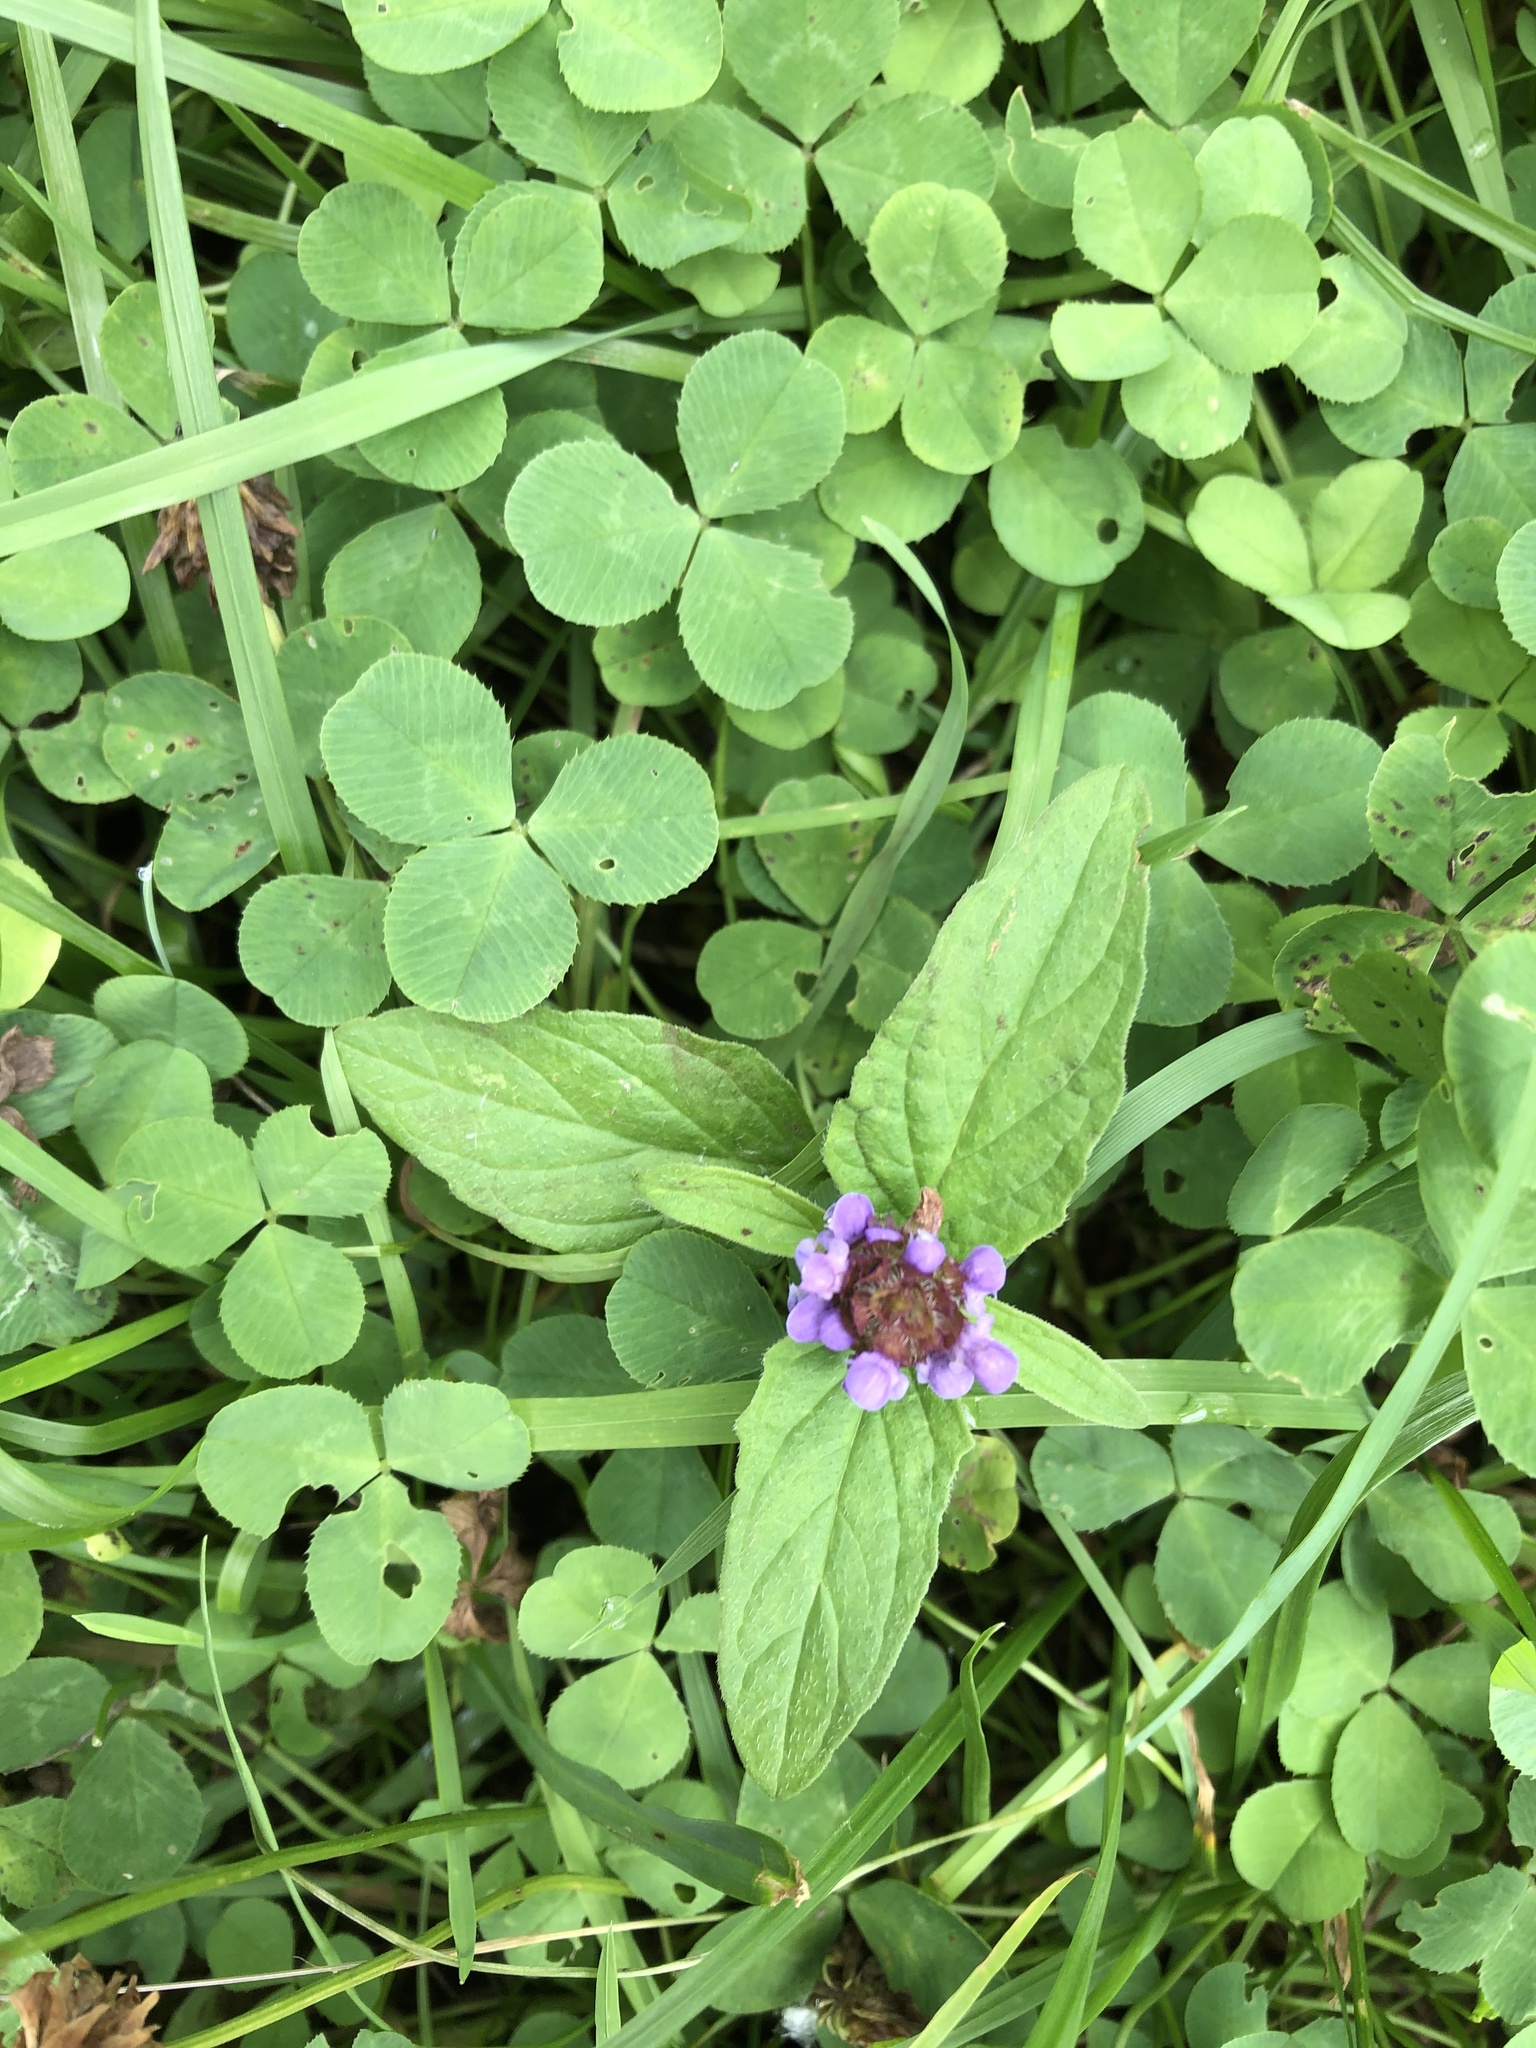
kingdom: Plantae
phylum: Tracheophyta
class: Magnoliopsida
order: Lamiales
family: Lamiaceae
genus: Prunella
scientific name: Prunella vulgaris
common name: Heal-all
